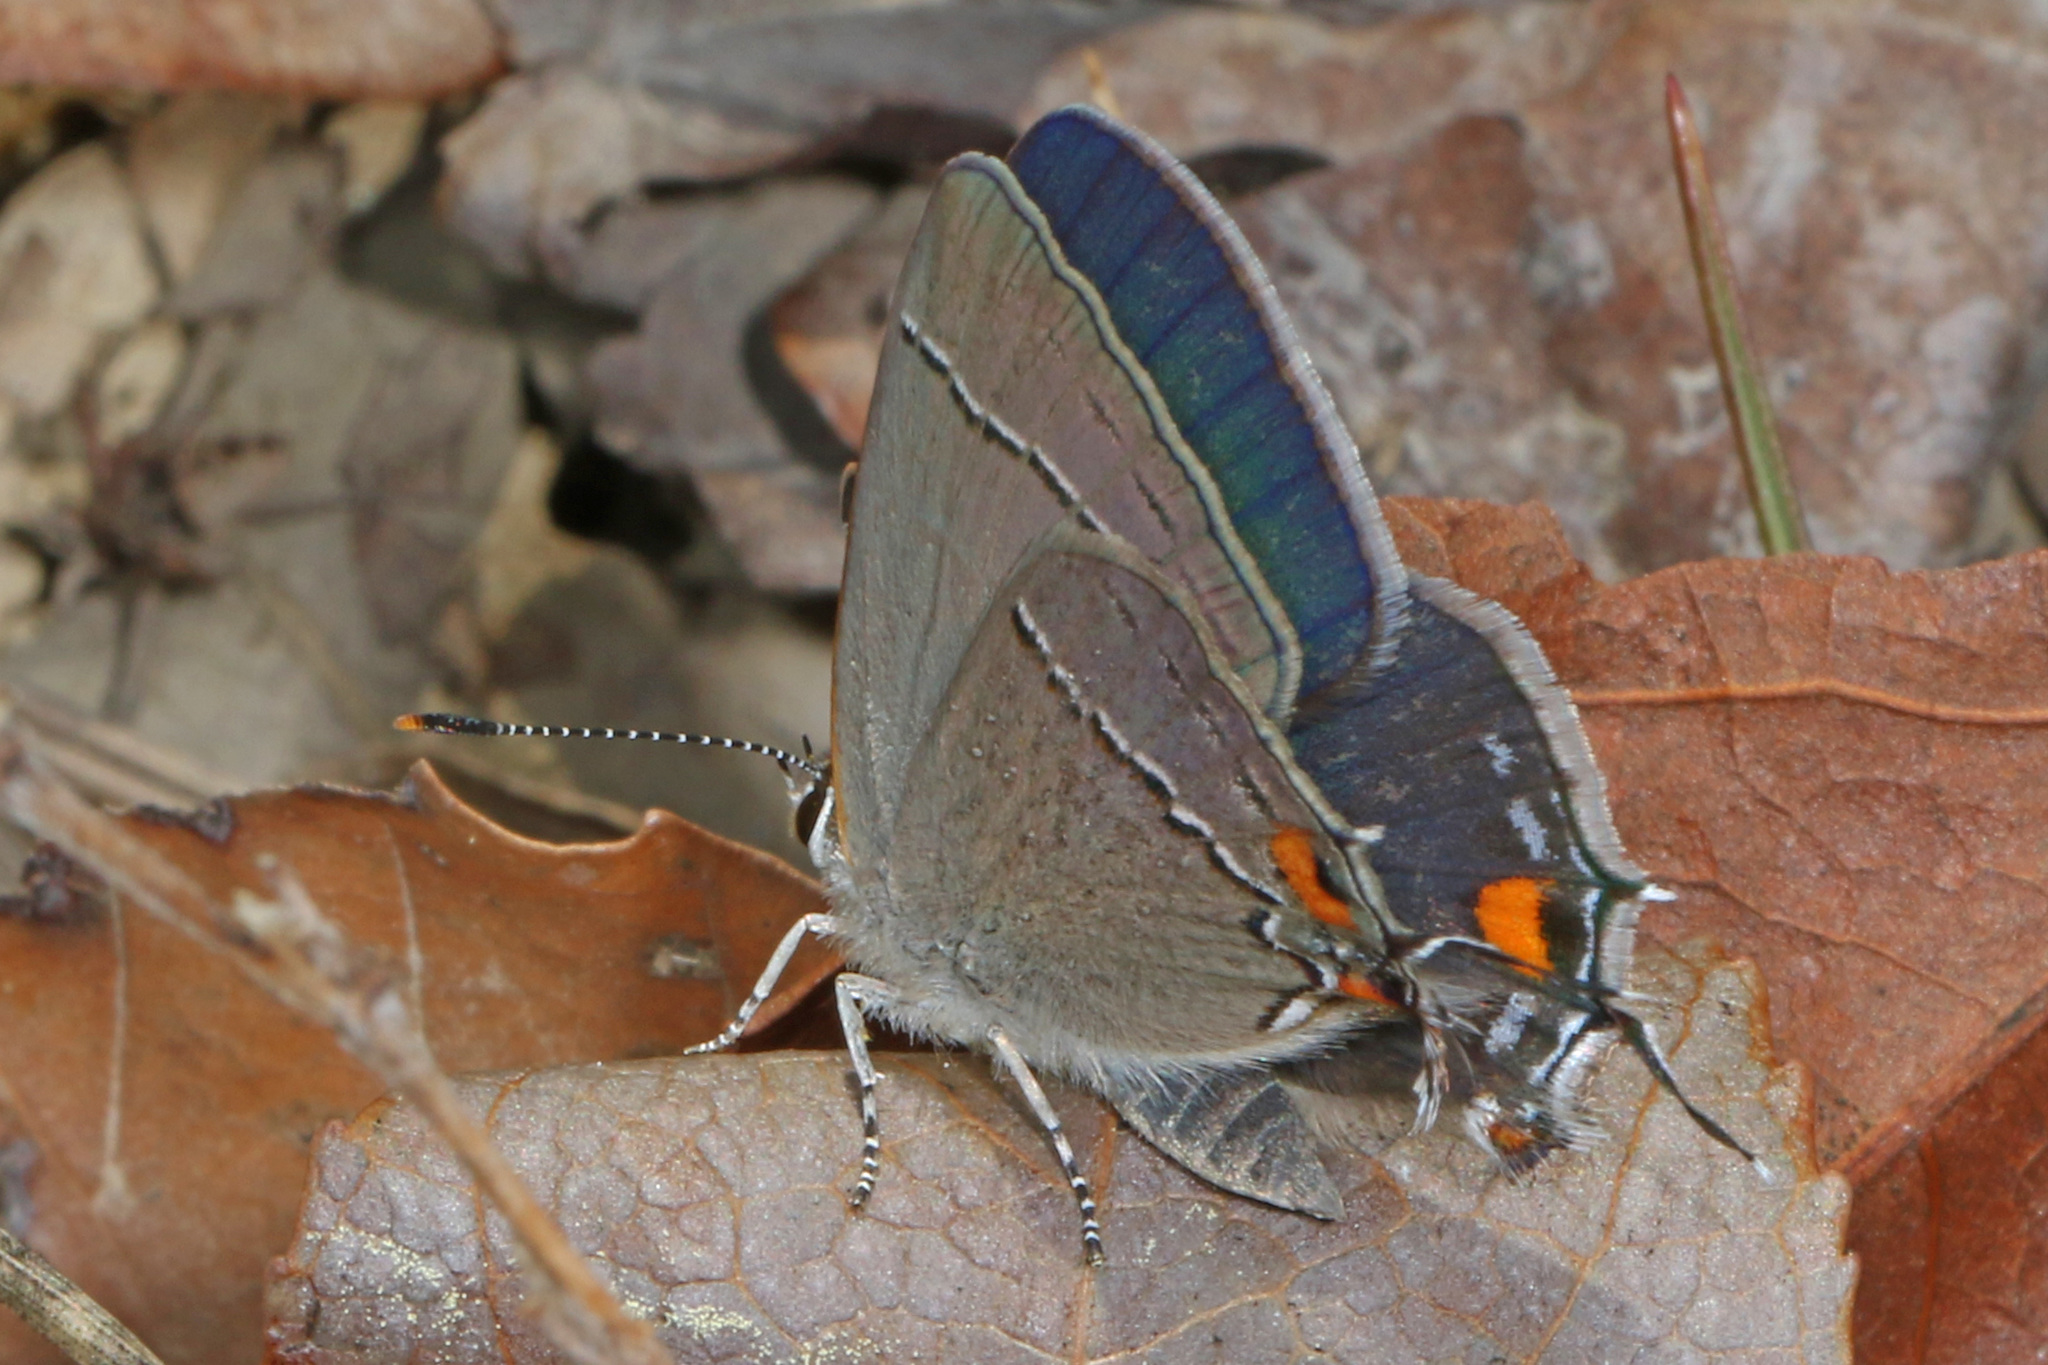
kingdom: Animalia
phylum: Arthropoda
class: Insecta
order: Lepidoptera
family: Lycaenidae
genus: Strymon
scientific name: Strymon melinus
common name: Gray hairstreak
